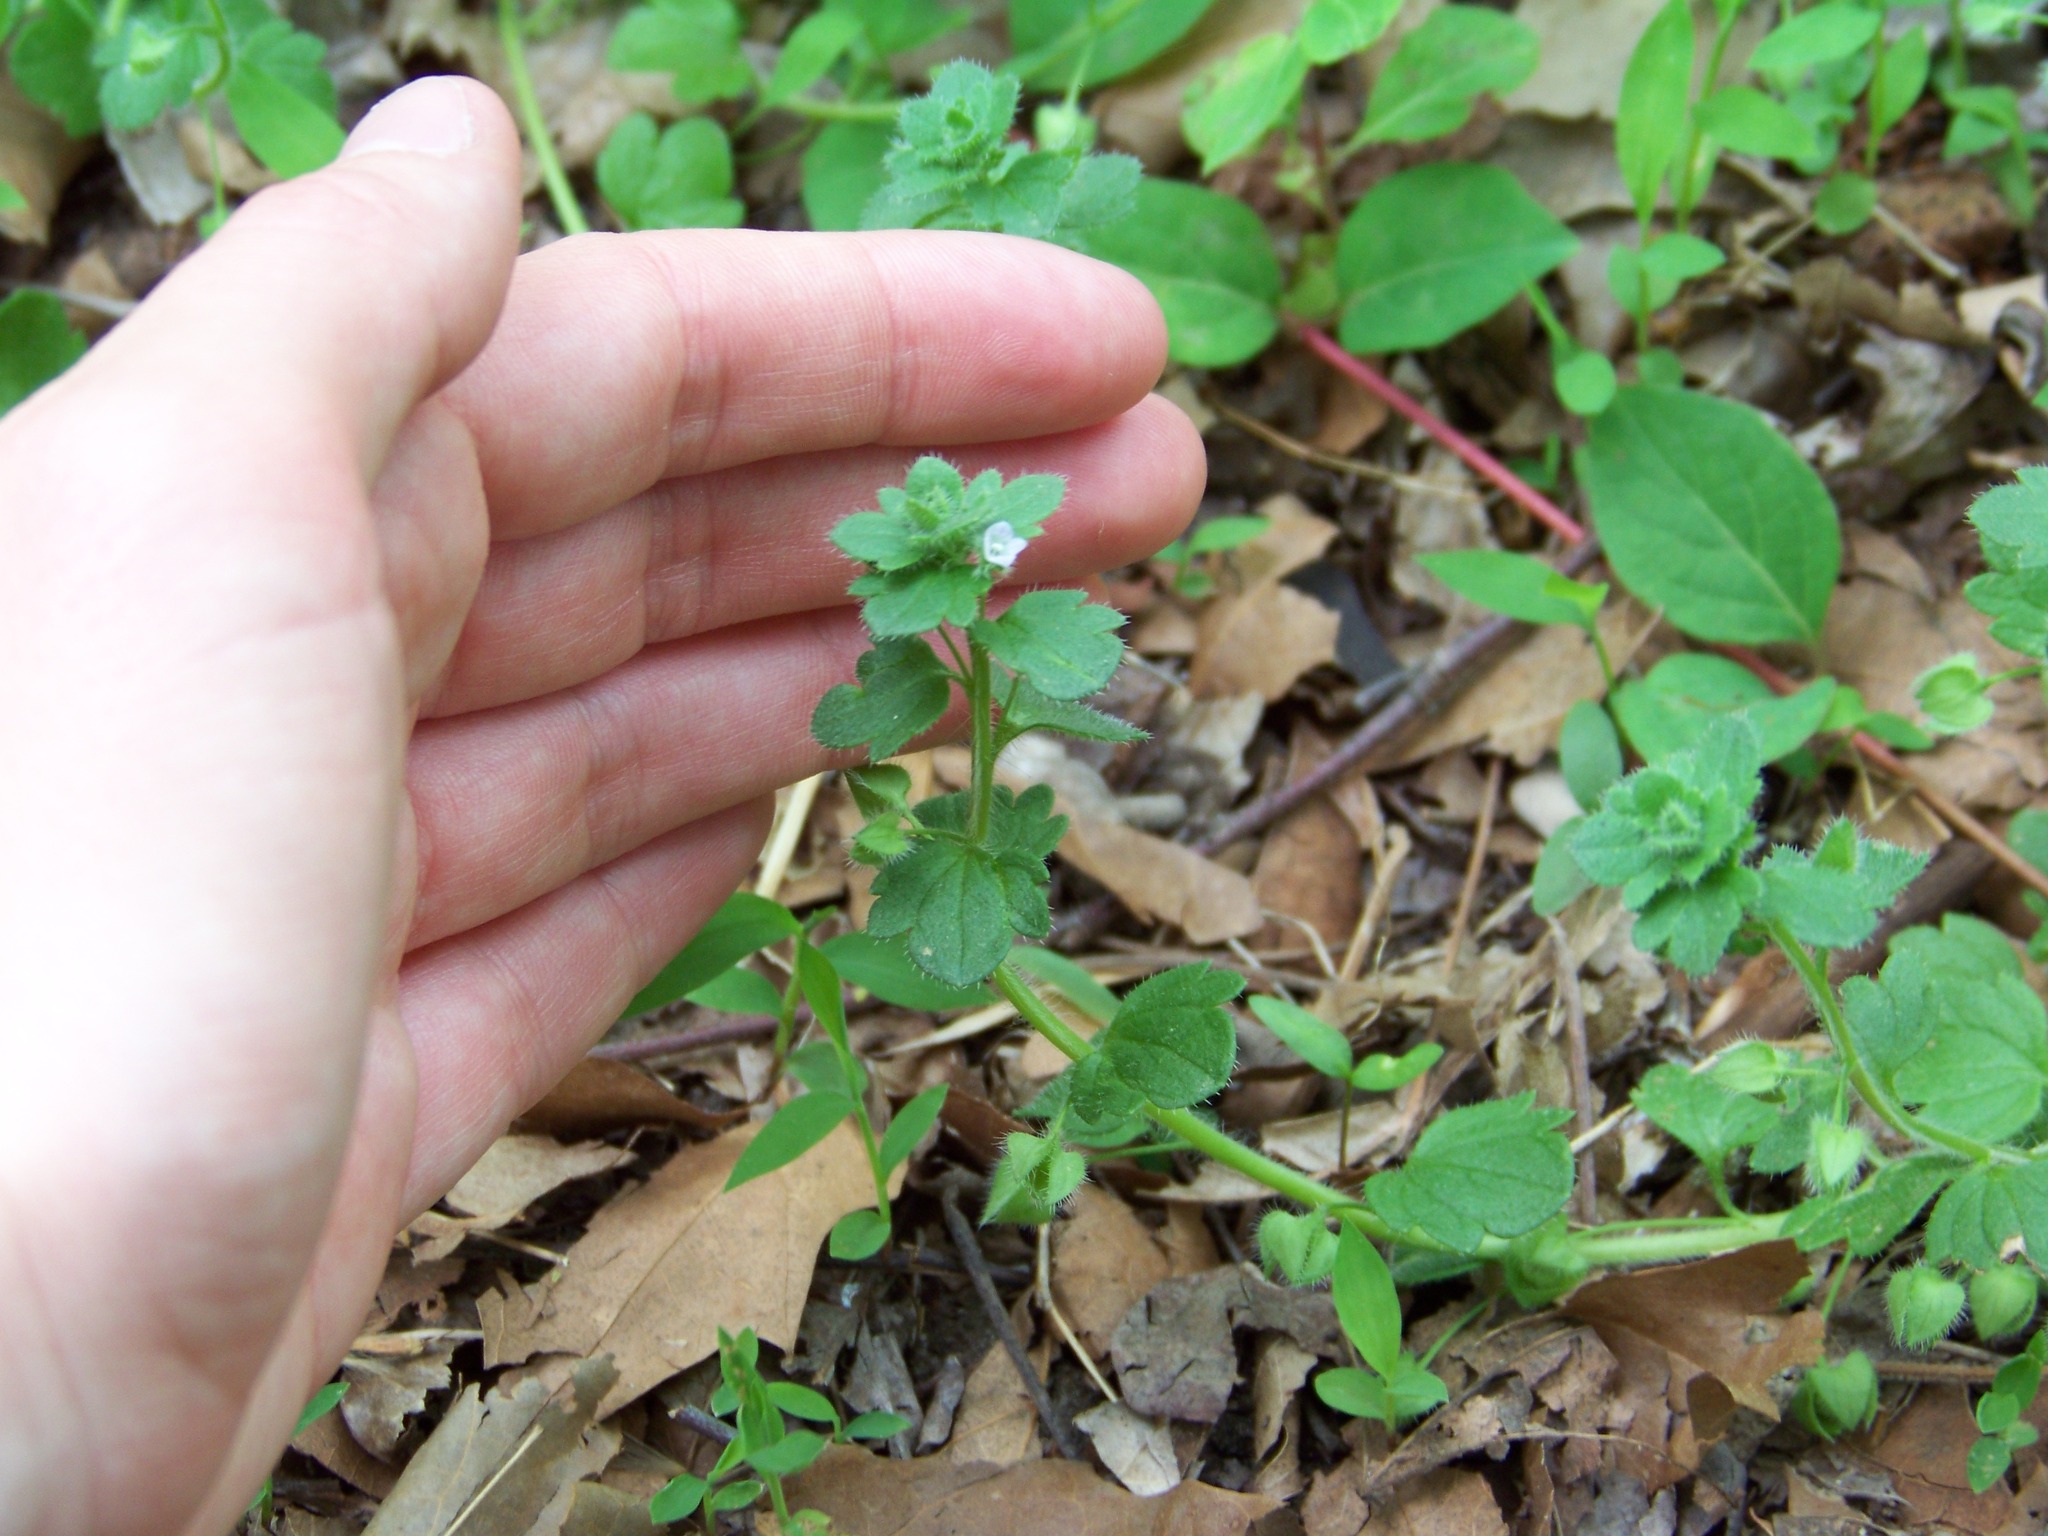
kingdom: Plantae
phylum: Tracheophyta
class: Magnoliopsida
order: Lamiales
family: Plantaginaceae
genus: Veronica
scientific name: Veronica hederifolia
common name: Ivy-leaved speedwell
